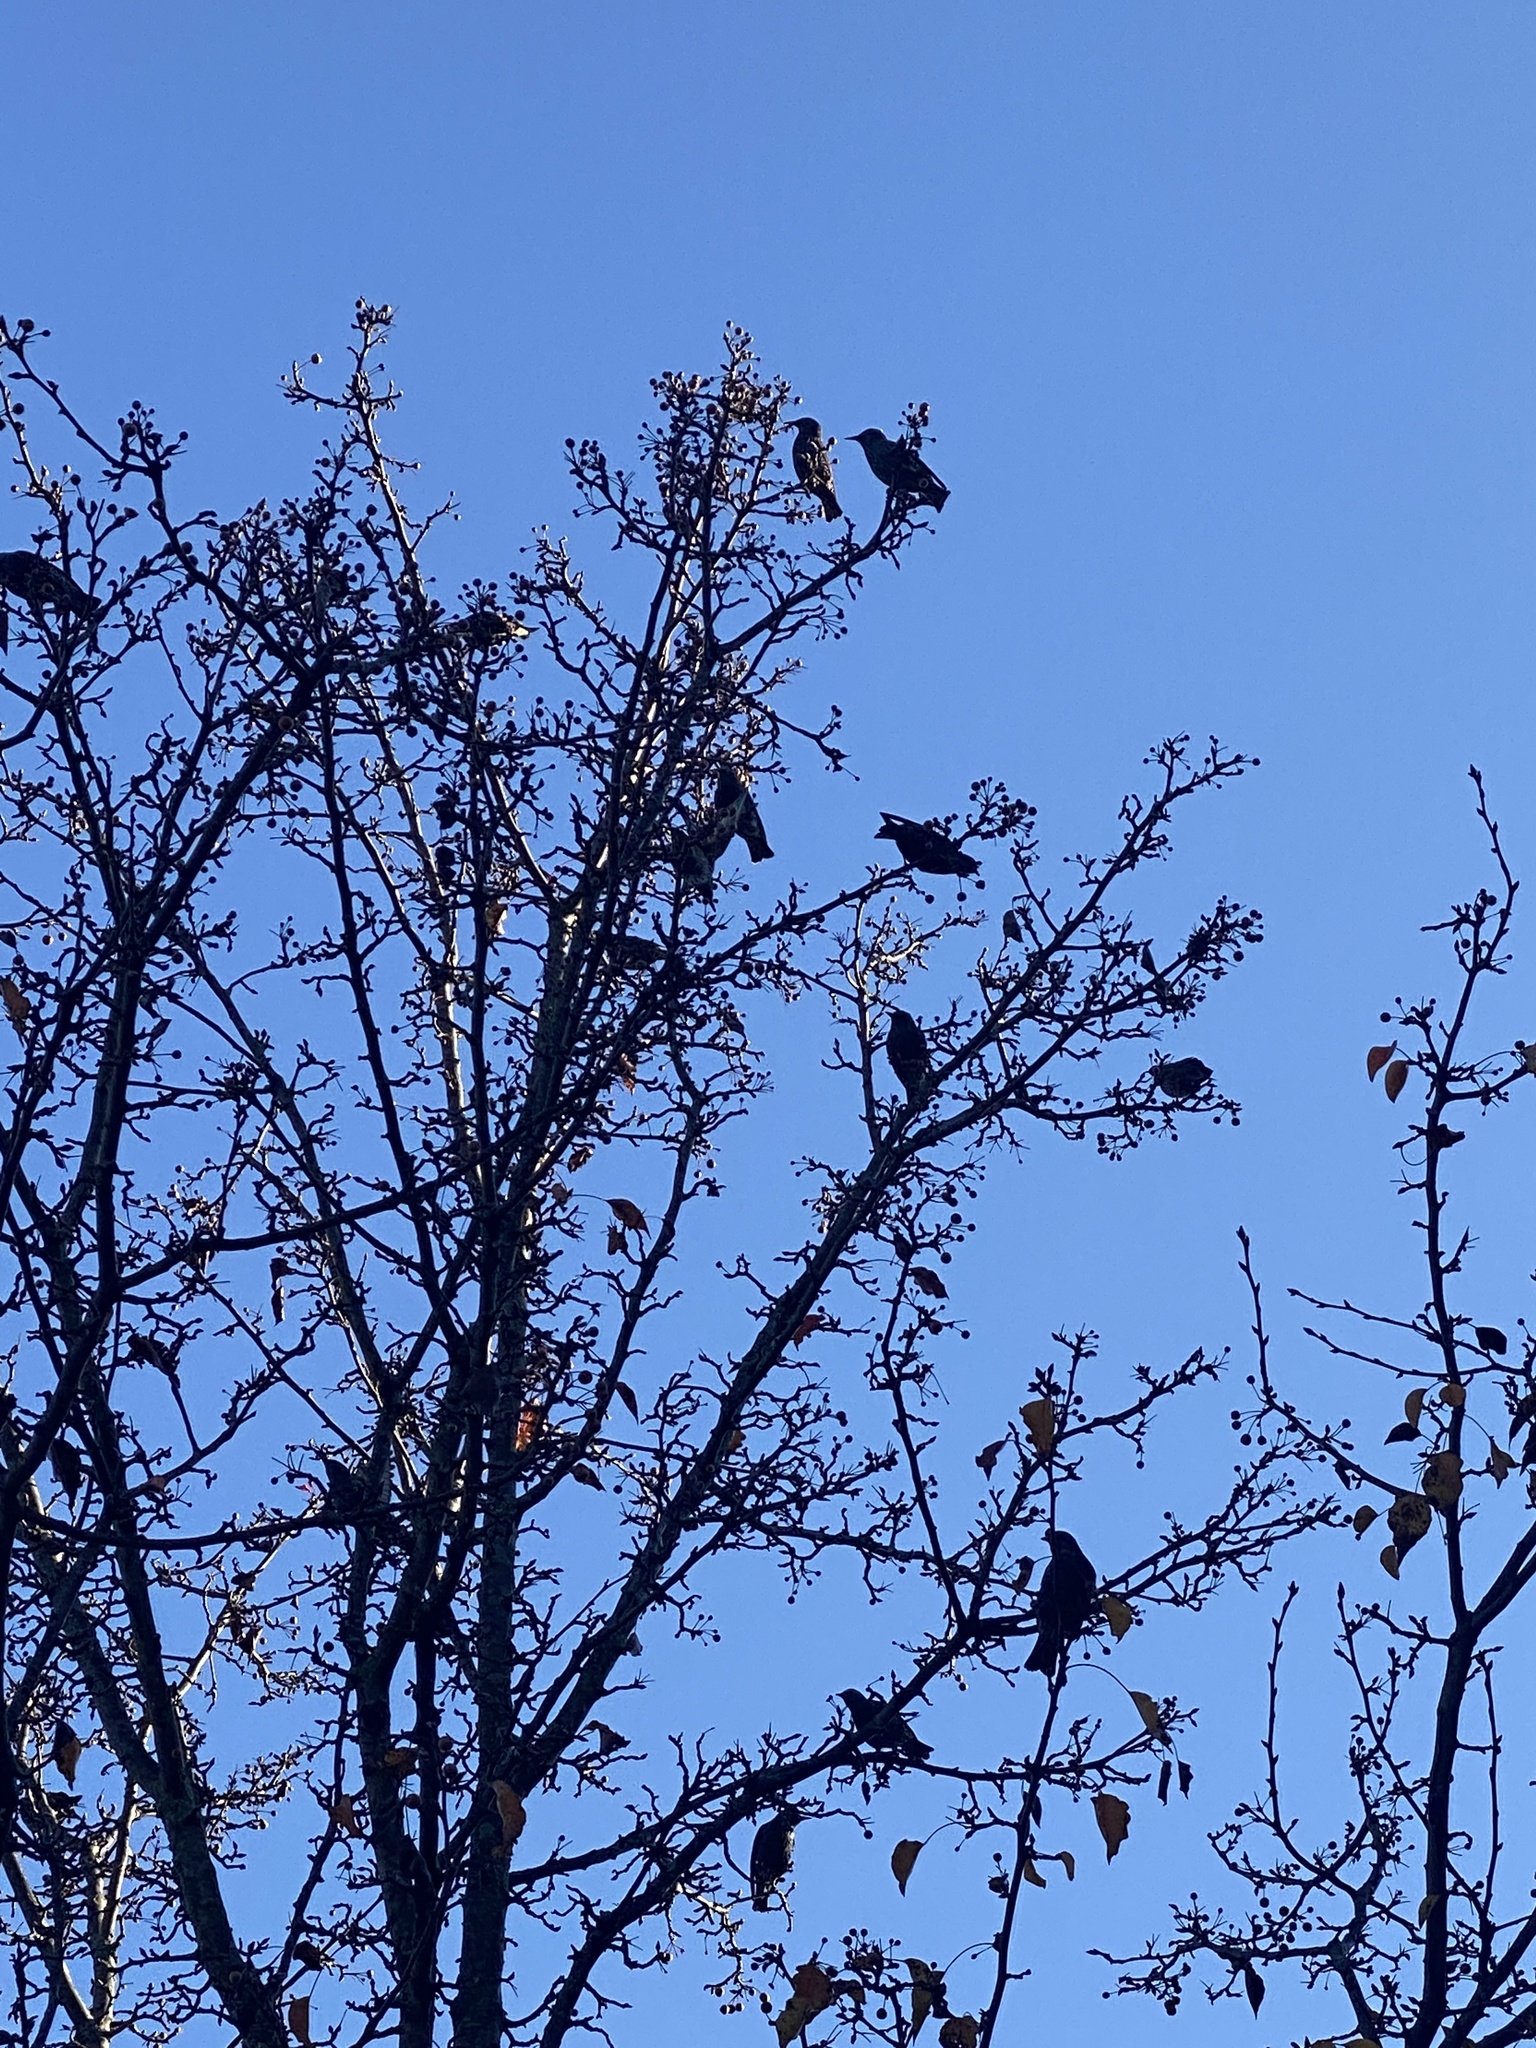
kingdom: Animalia
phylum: Chordata
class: Aves
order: Passeriformes
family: Sturnidae
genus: Sturnus
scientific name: Sturnus vulgaris
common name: Common starling
